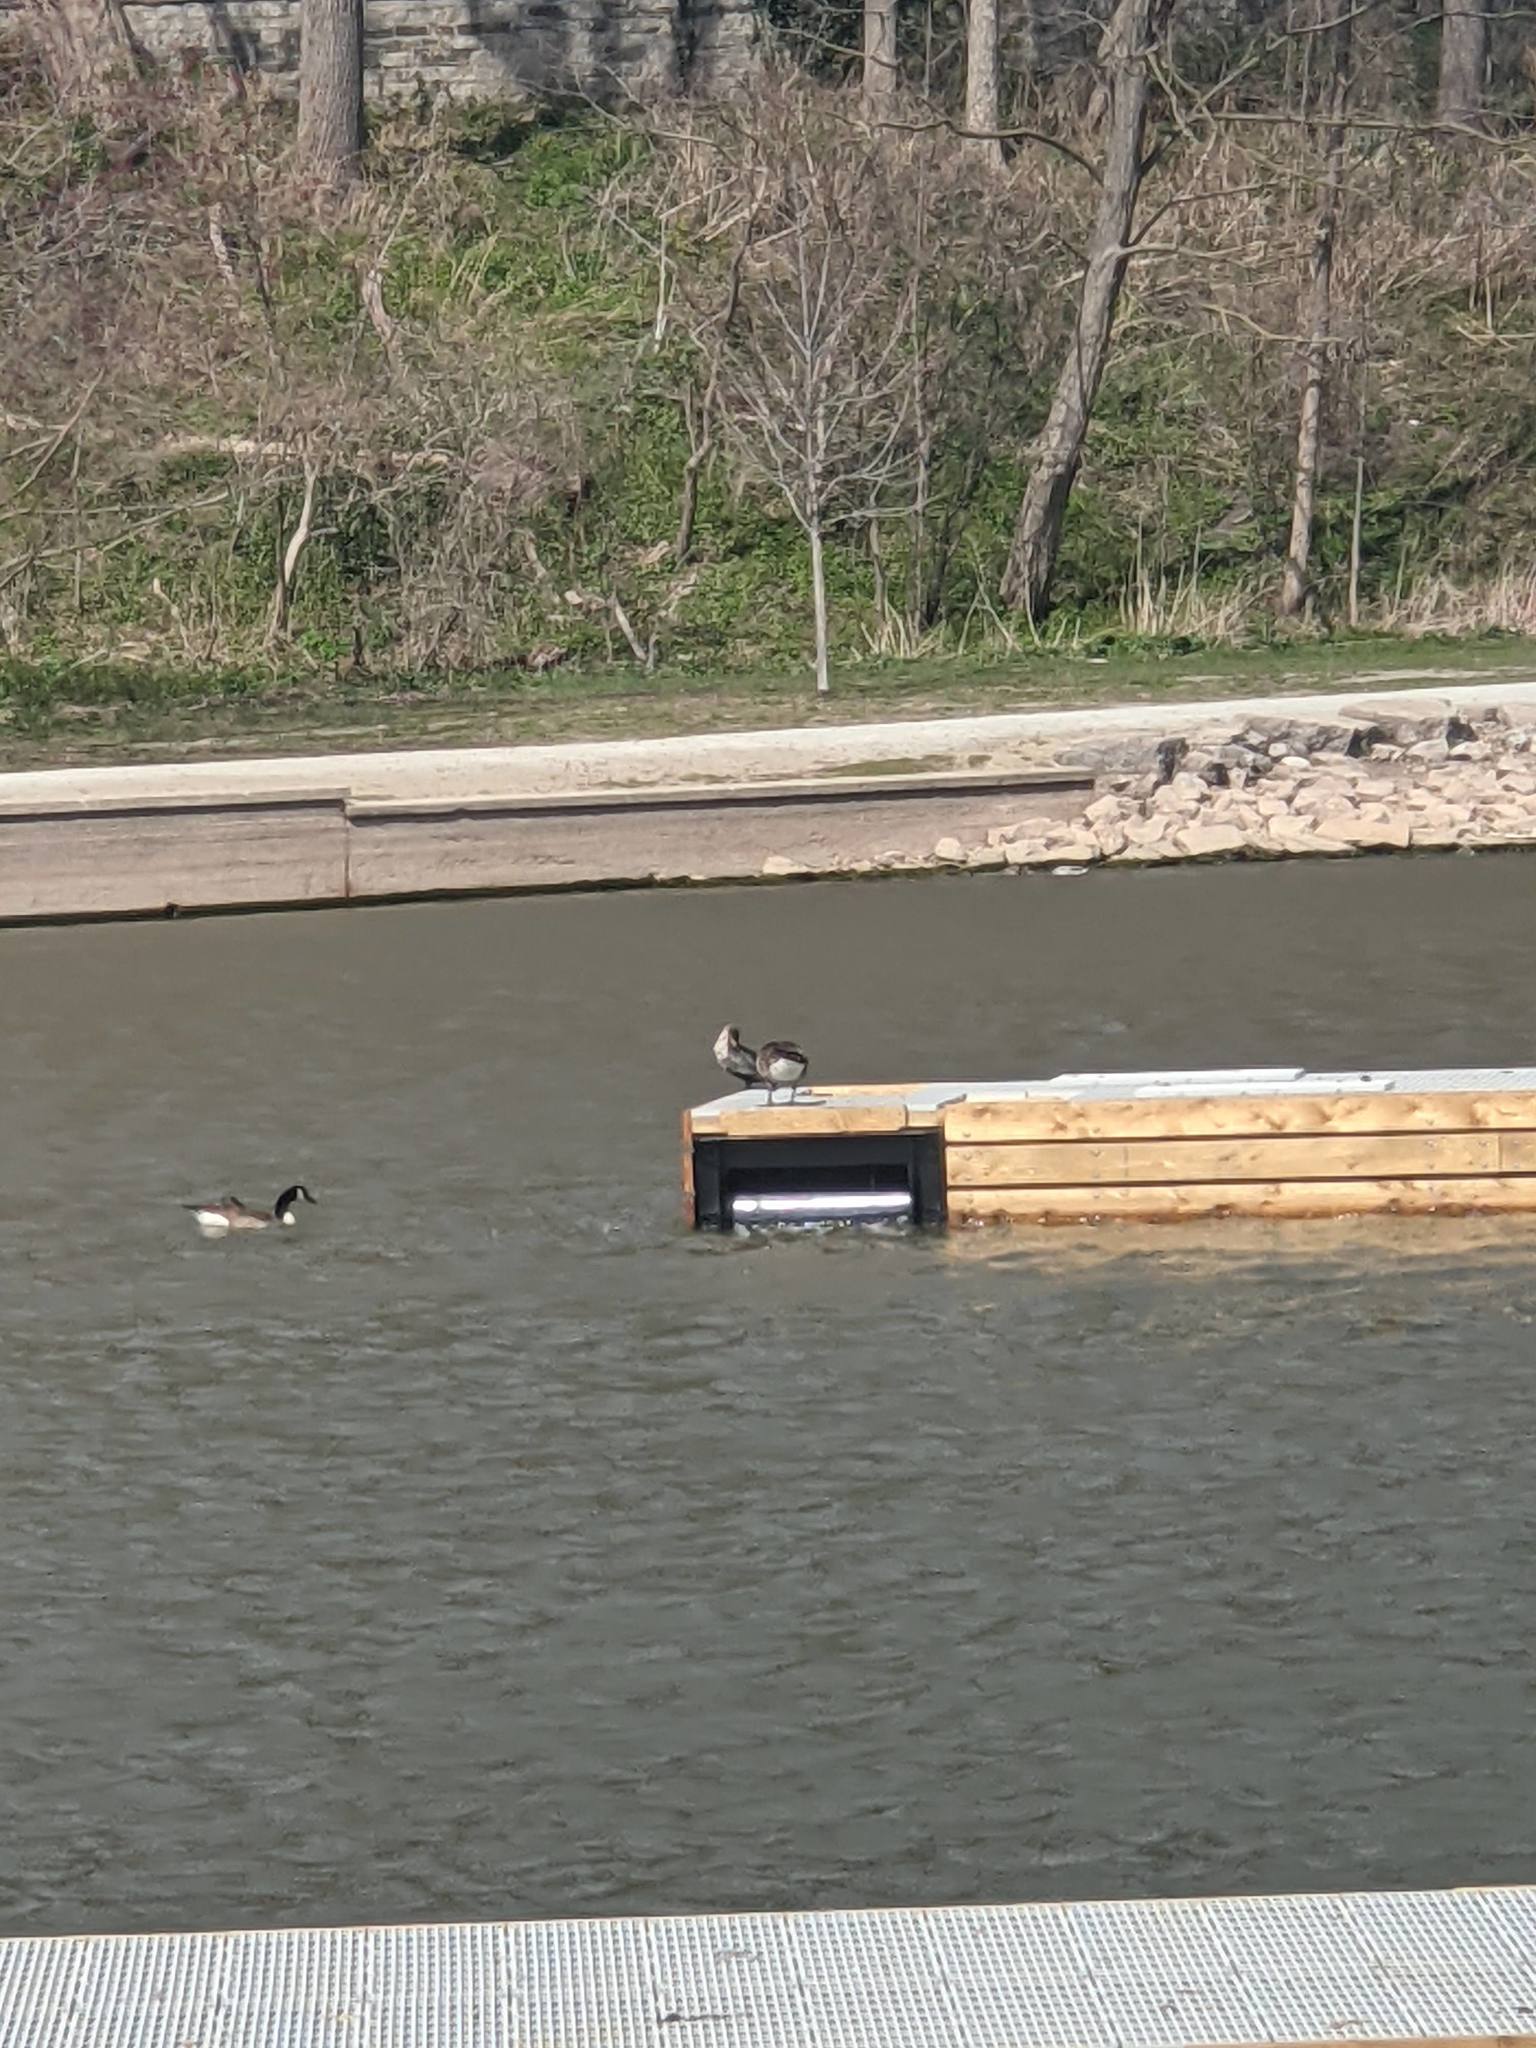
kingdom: Animalia
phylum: Chordata
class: Aves
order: Suliformes
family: Phalacrocoracidae
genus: Phalacrocorax
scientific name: Phalacrocorax auritus
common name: Double-crested cormorant
